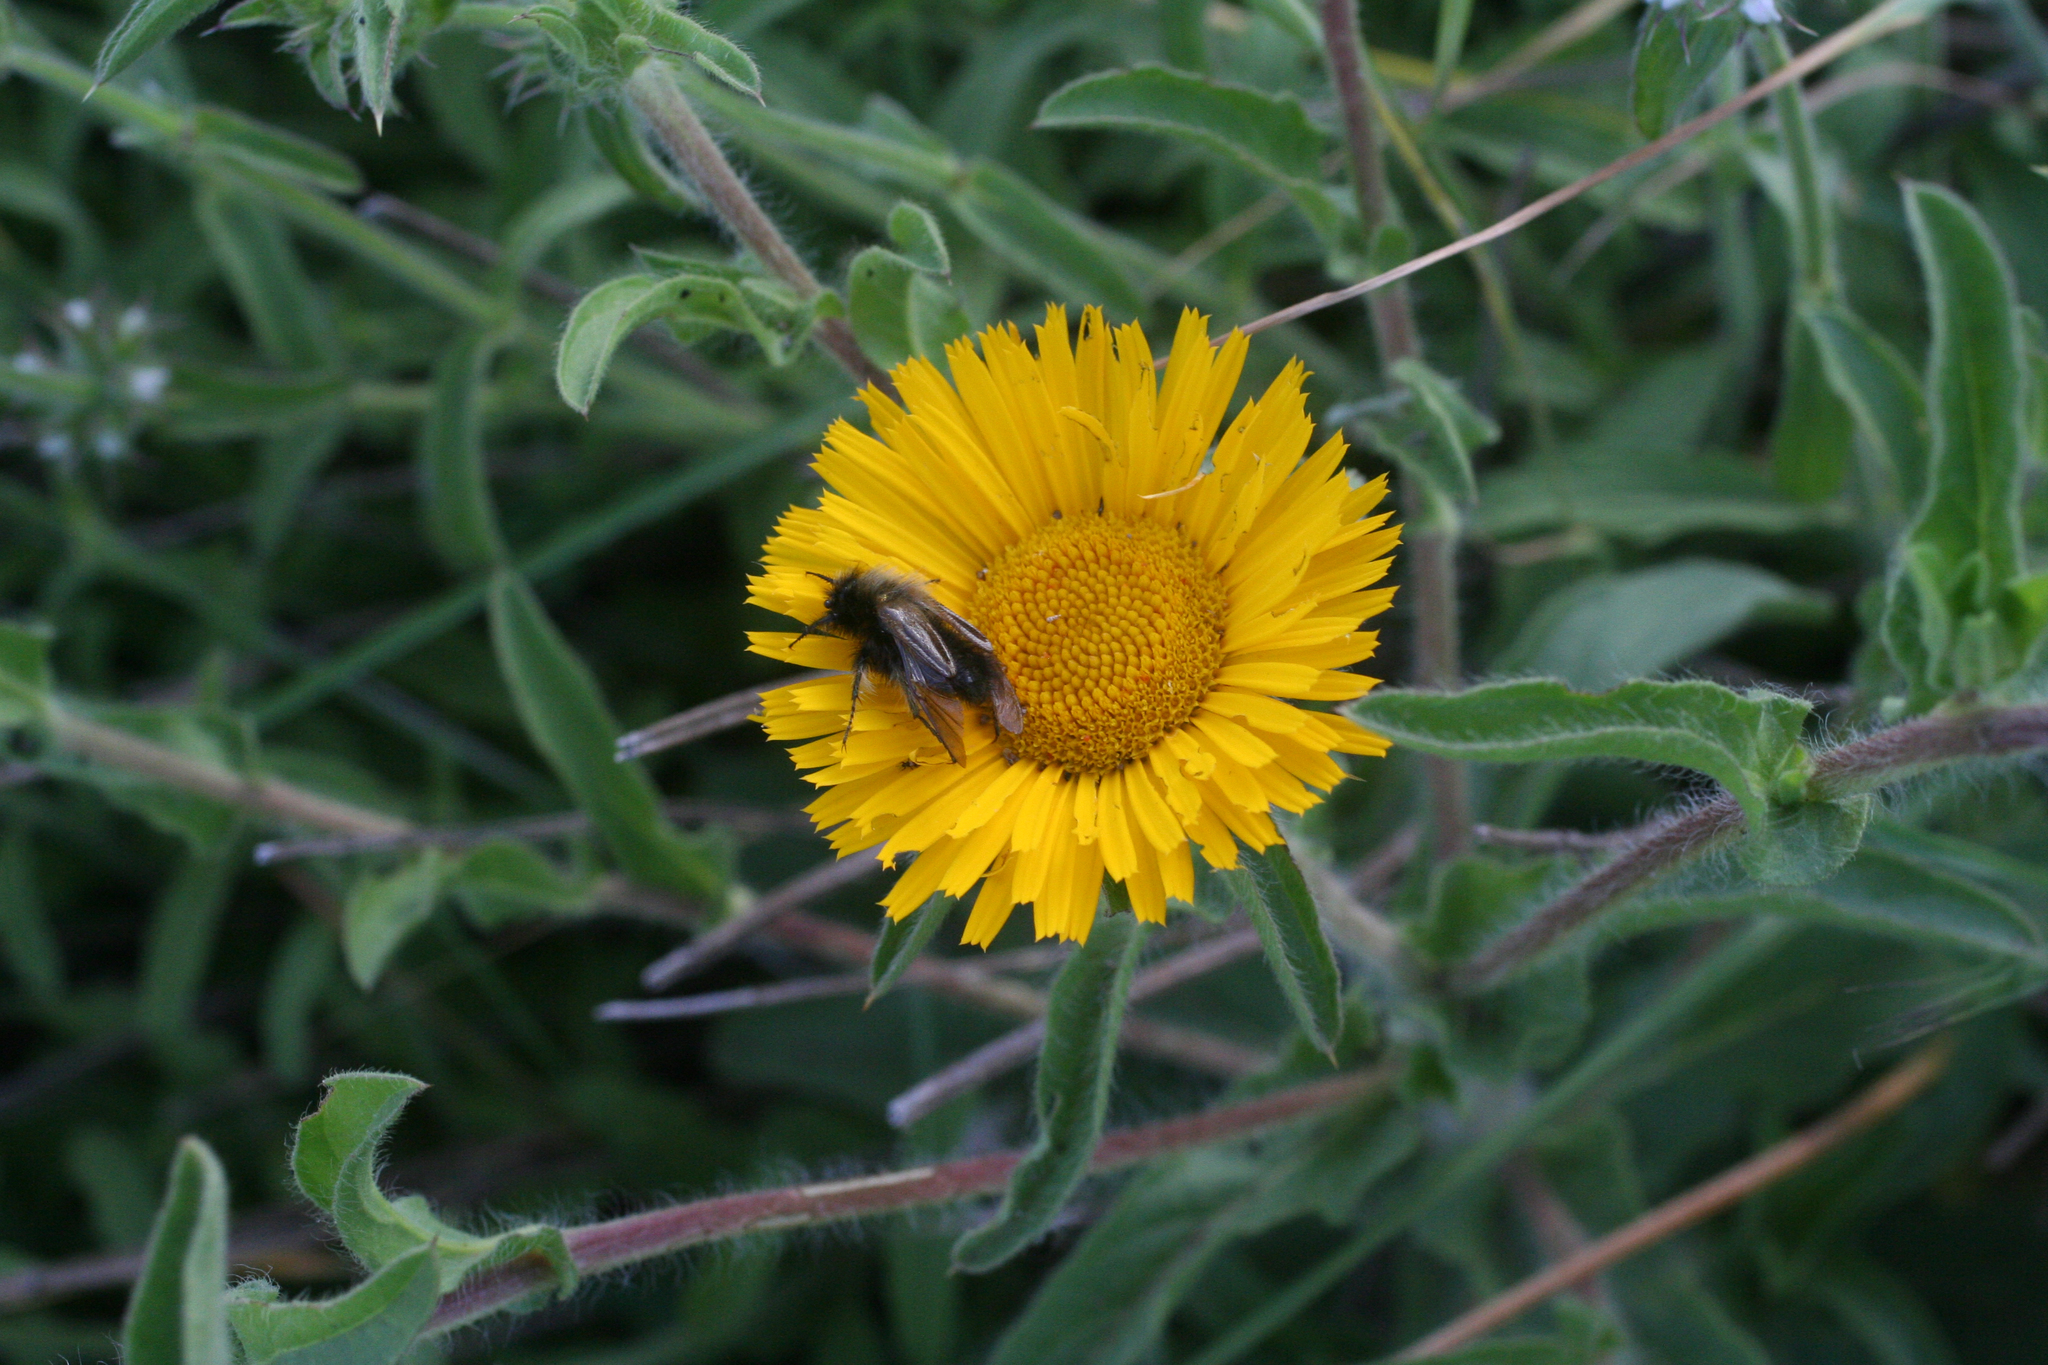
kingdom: Plantae
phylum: Tracheophyta
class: Magnoliopsida
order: Asterales
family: Asteraceae
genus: Pallenis
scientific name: Pallenis spinosa
